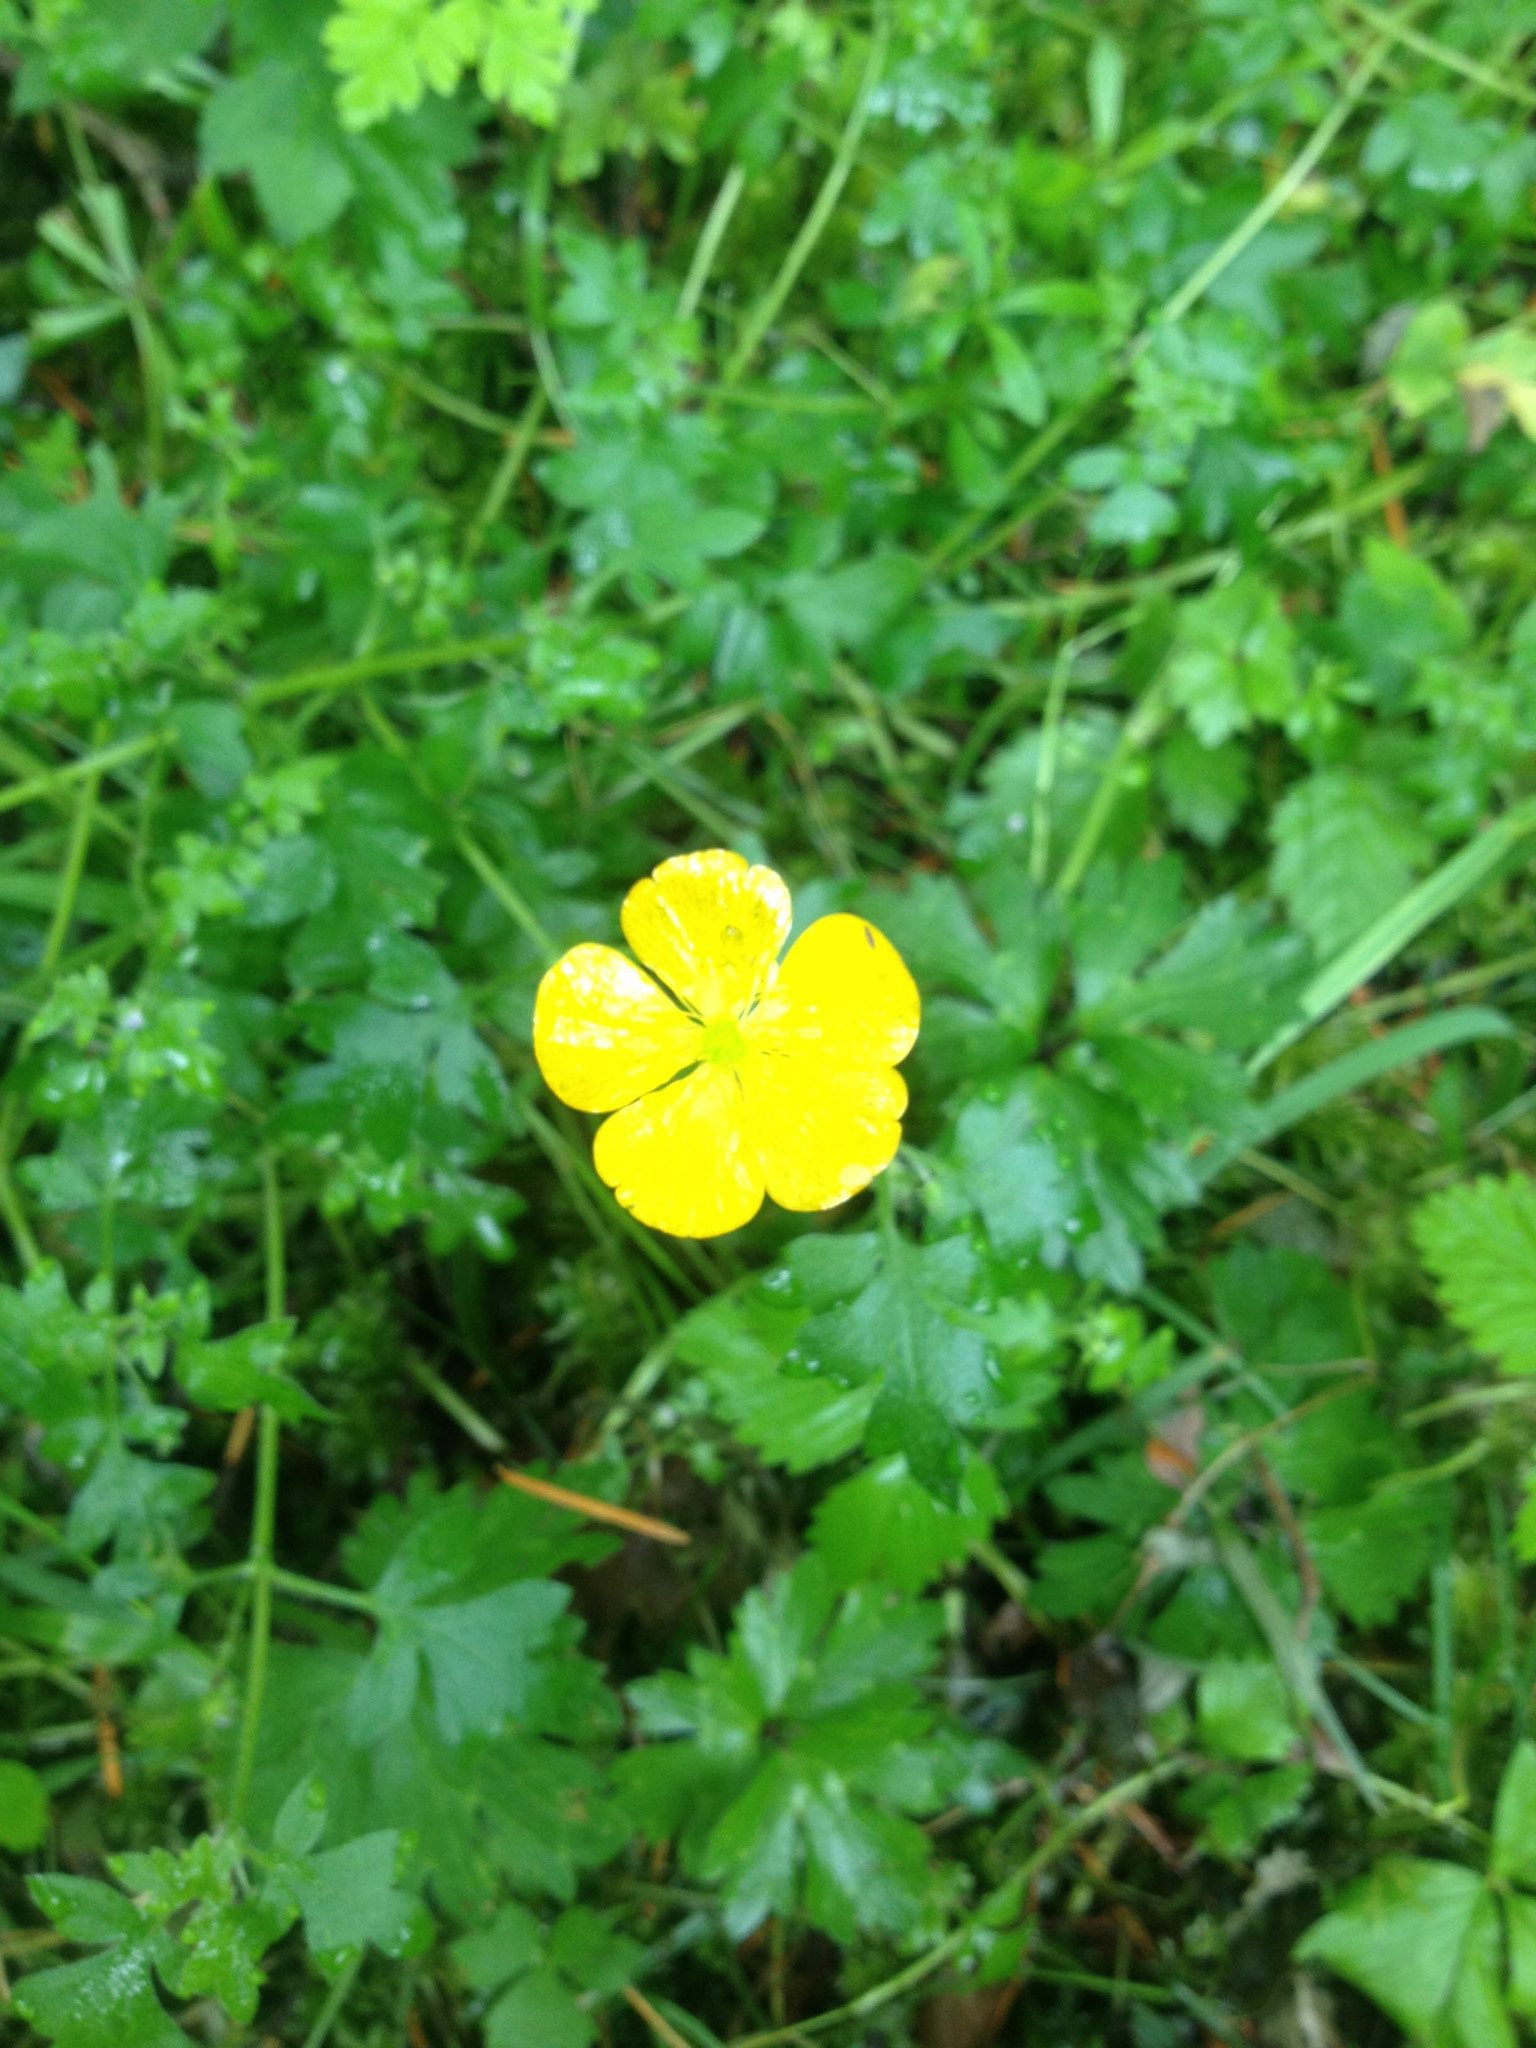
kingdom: Plantae
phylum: Tracheophyta
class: Magnoliopsida
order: Ranunculales
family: Ranunculaceae
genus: Ranunculus
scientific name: Ranunculus repens
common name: Creeping buttercup
